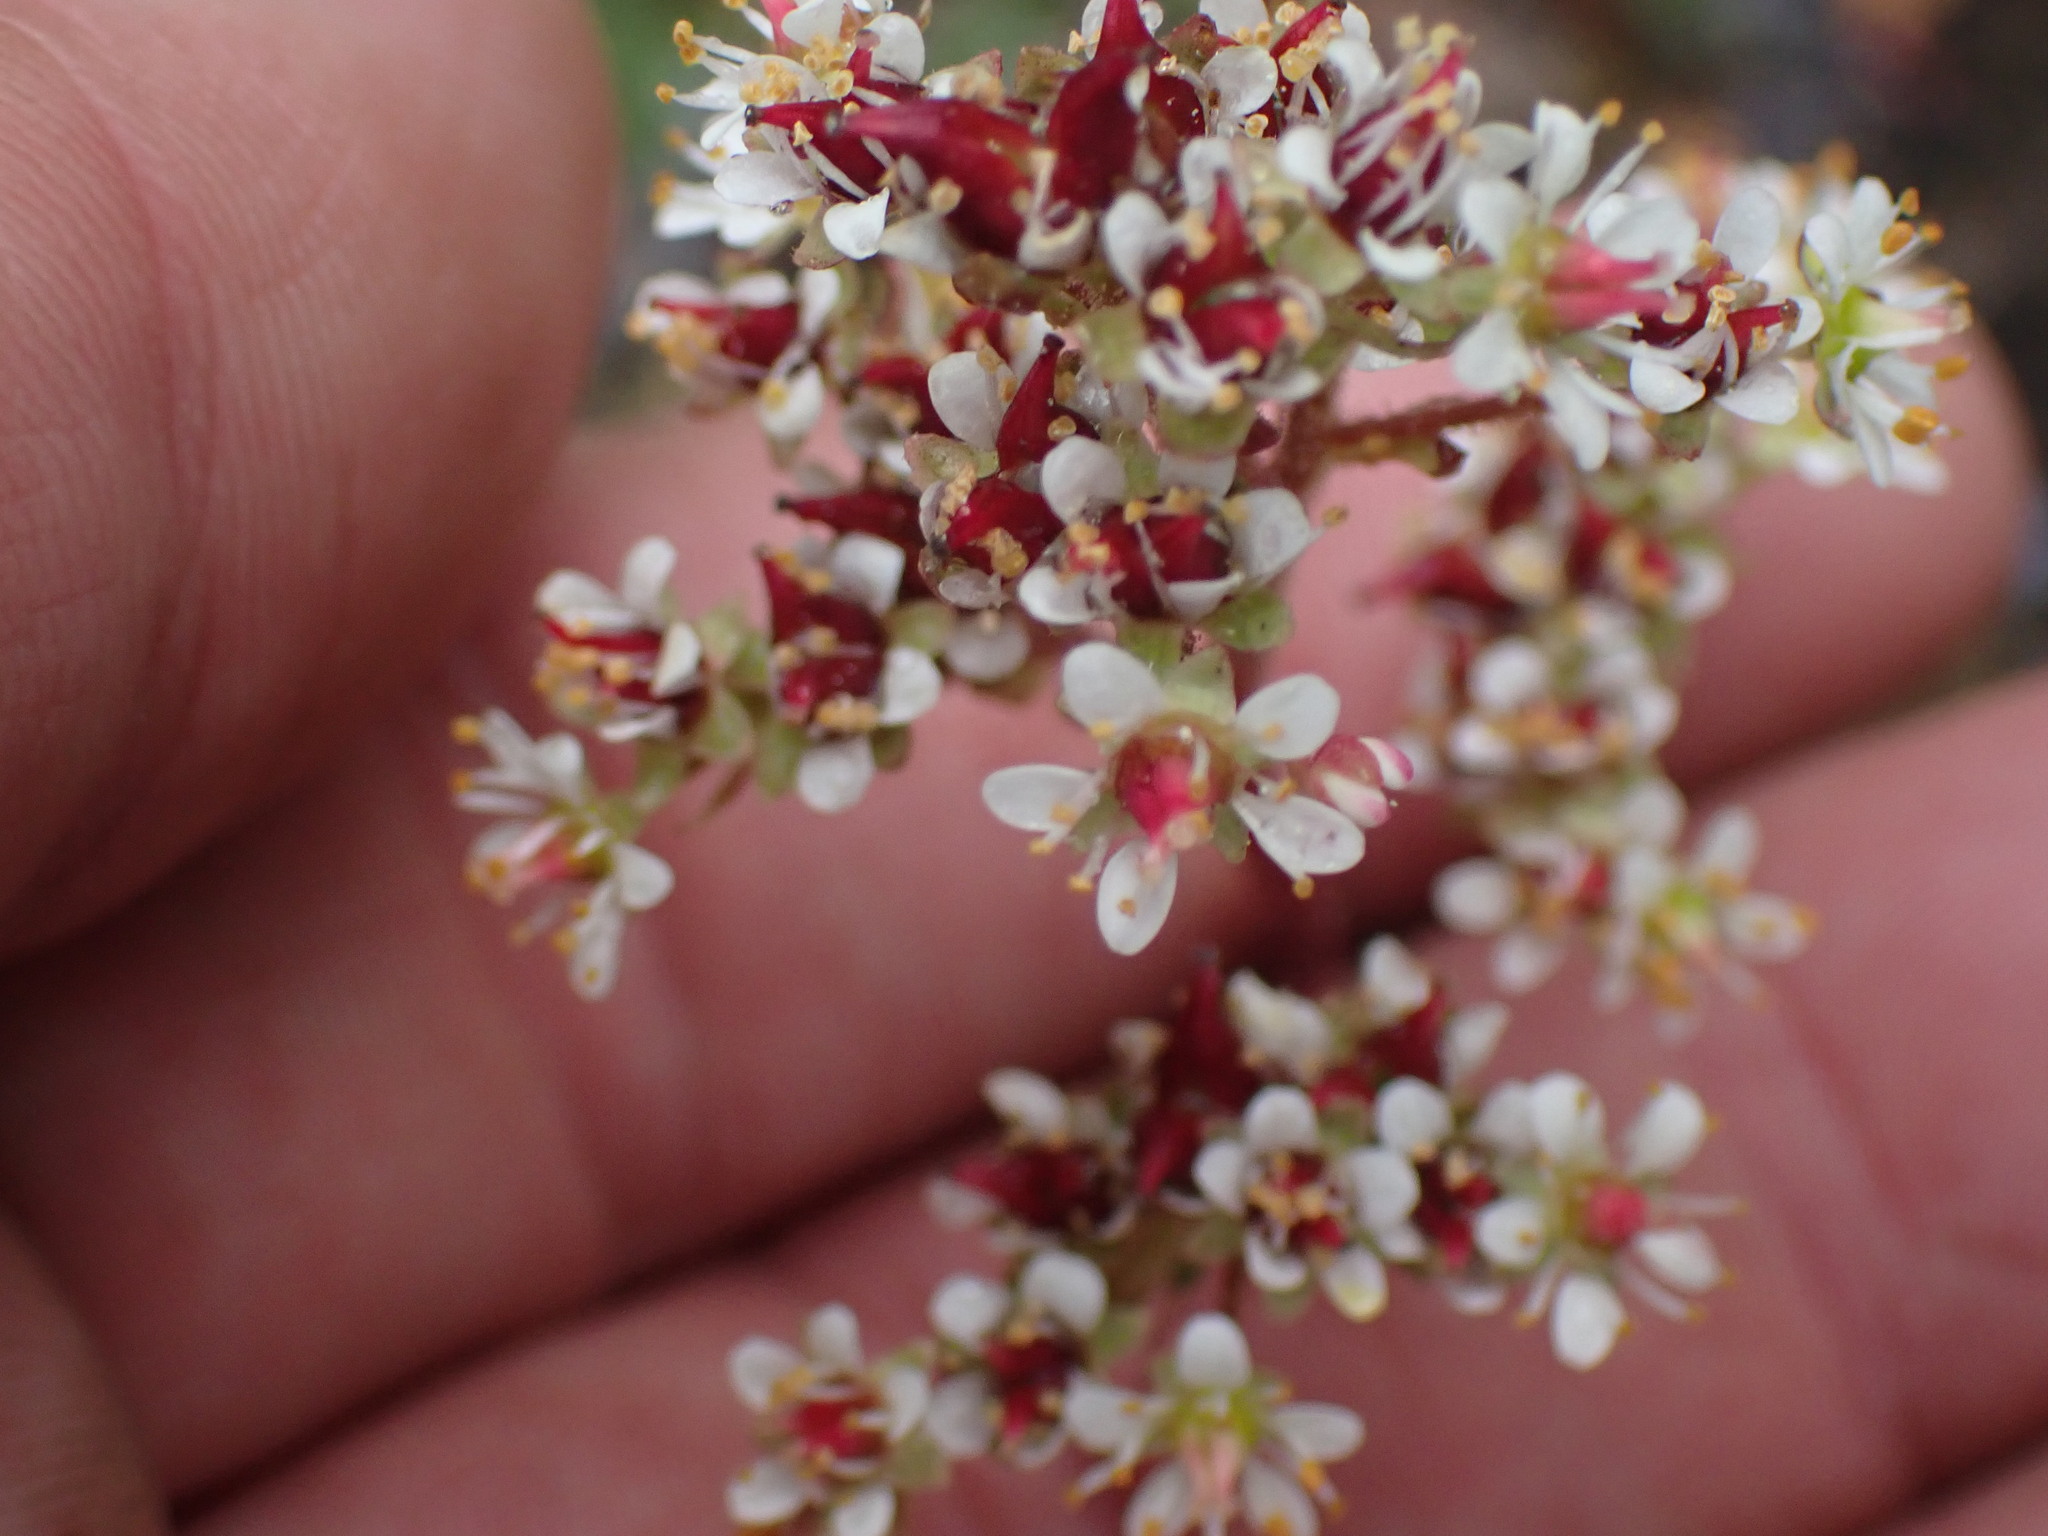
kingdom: Plantae
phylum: Tracheophyta
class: Magnoliopsida
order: Saxifragales
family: Saxifragaceae
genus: Micranthes
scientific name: Micranthes occidentalis
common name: Alberta saxifrage
